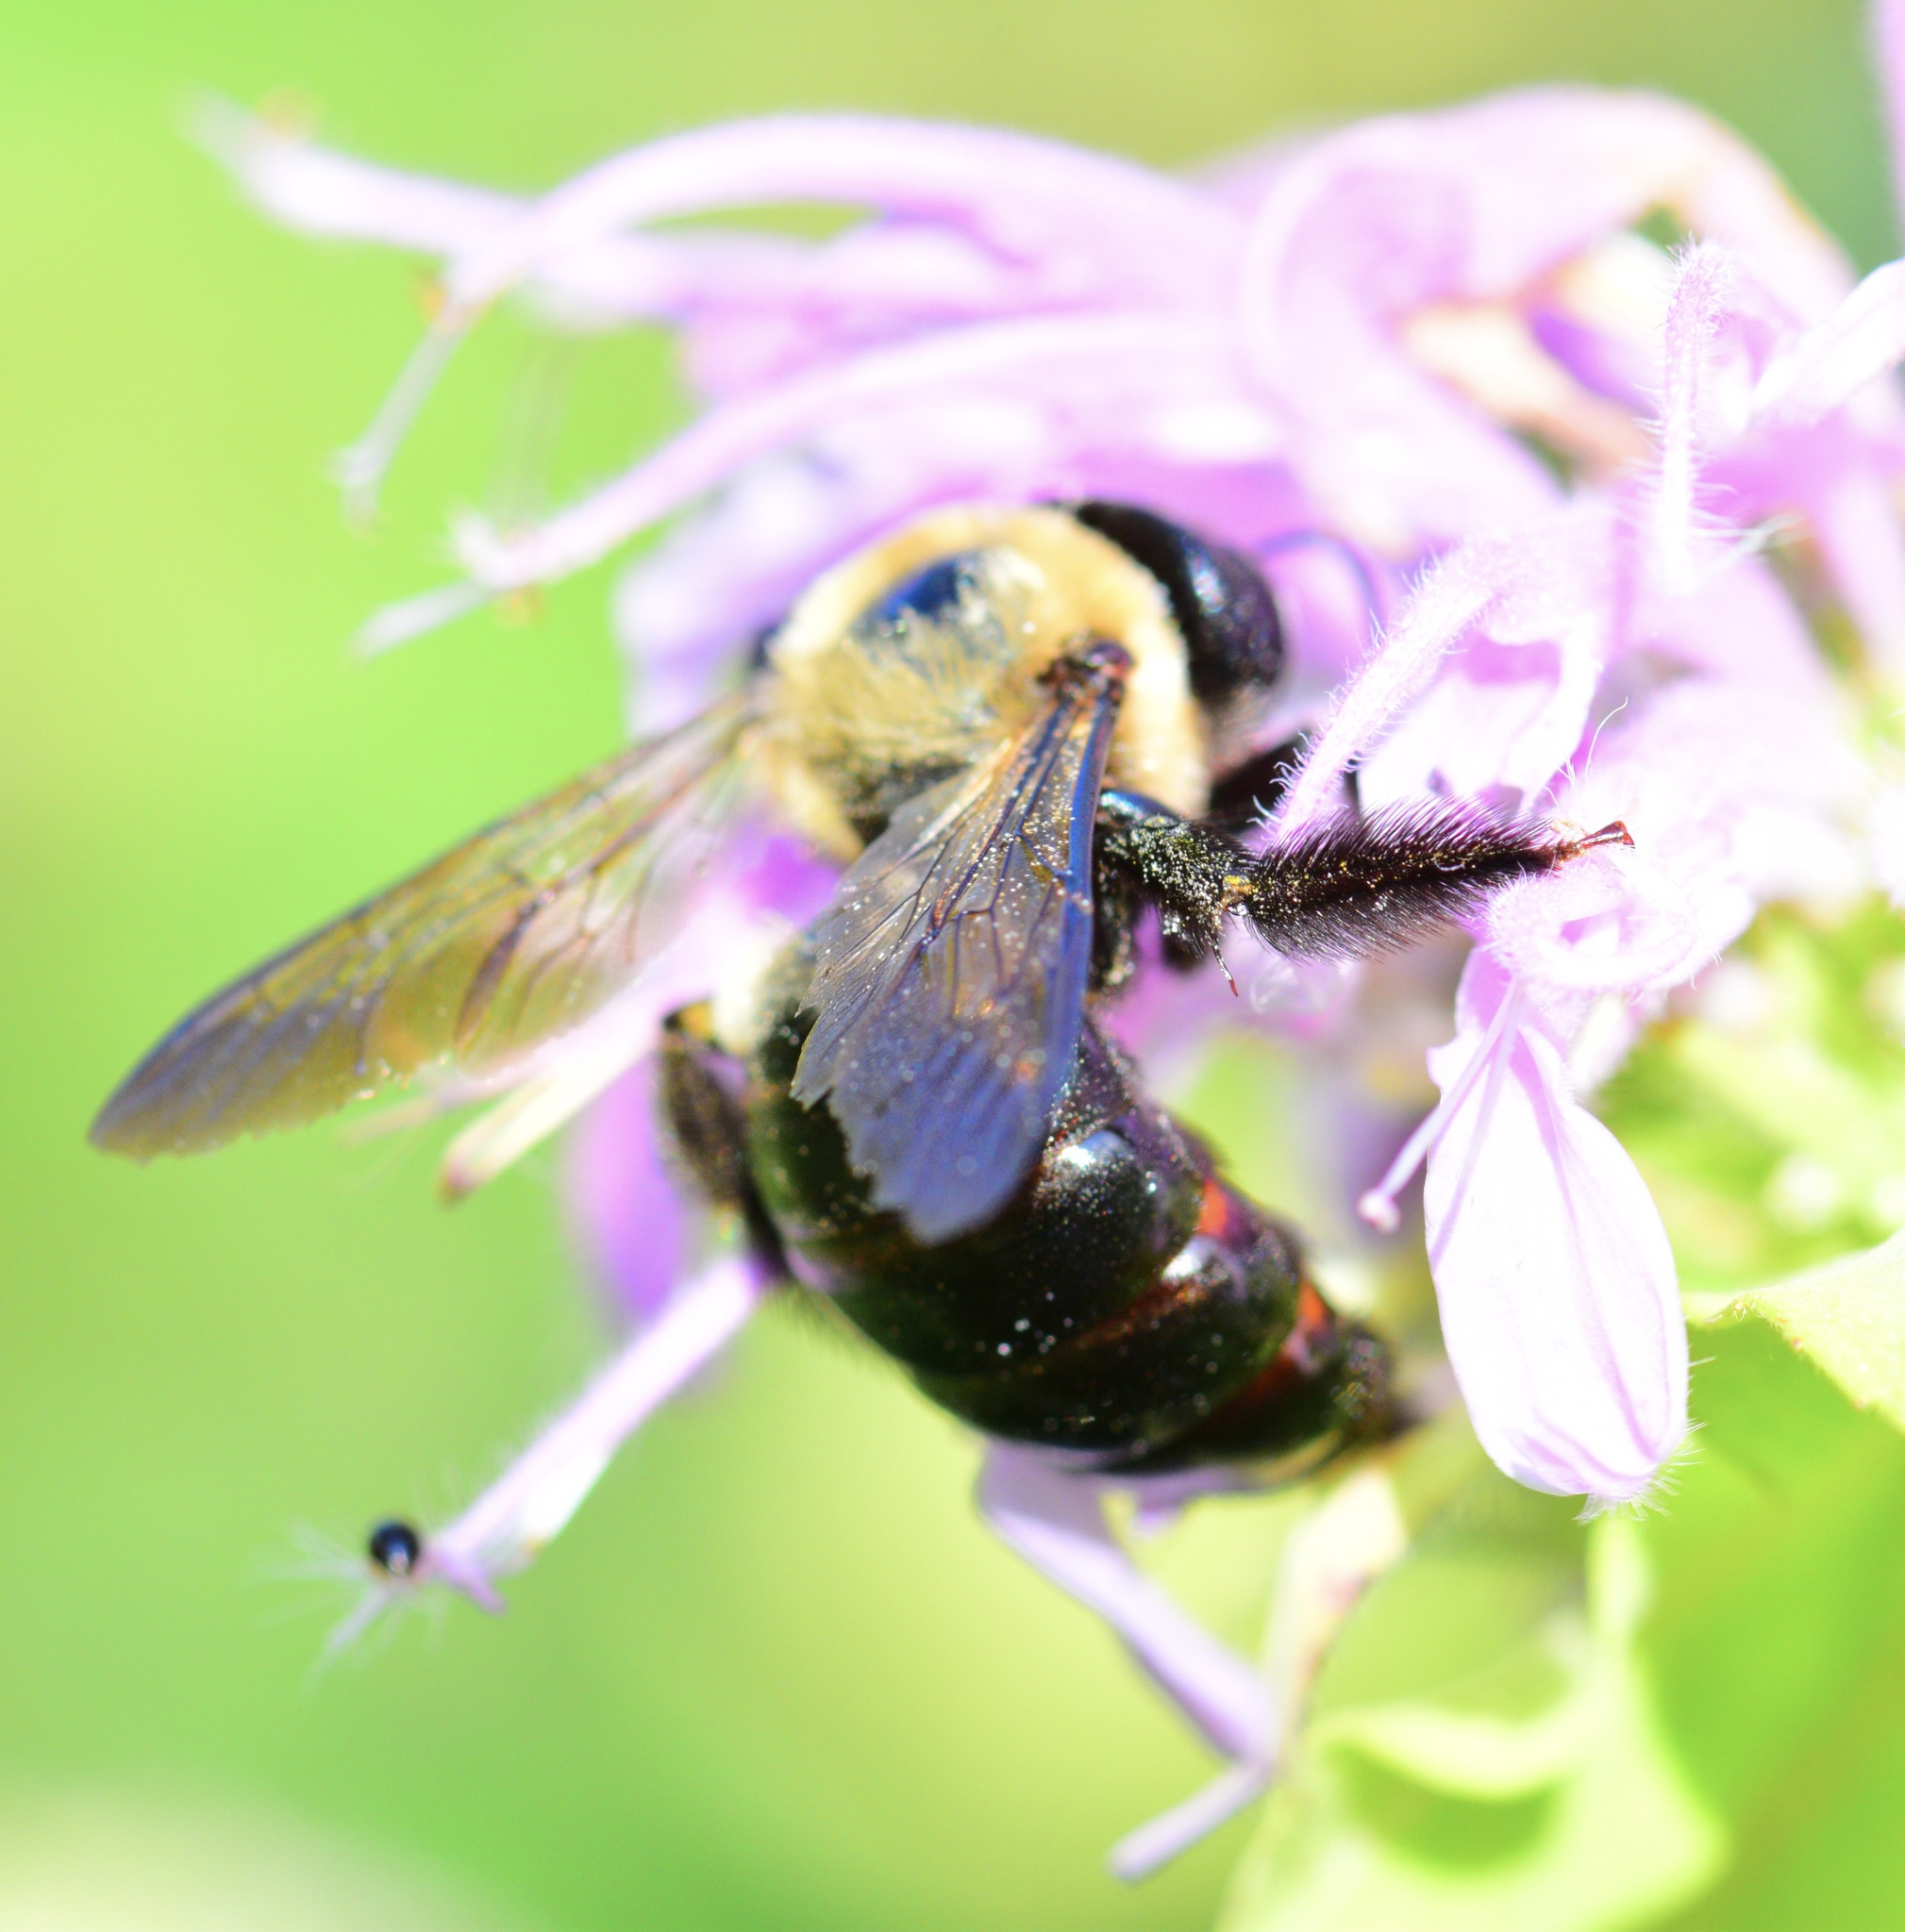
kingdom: Animalia
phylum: Arthropoda
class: Insecta
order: Hymenoptera
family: Apidae
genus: Xylocopa
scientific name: Xylocopa virginica
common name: Carpenter bee
